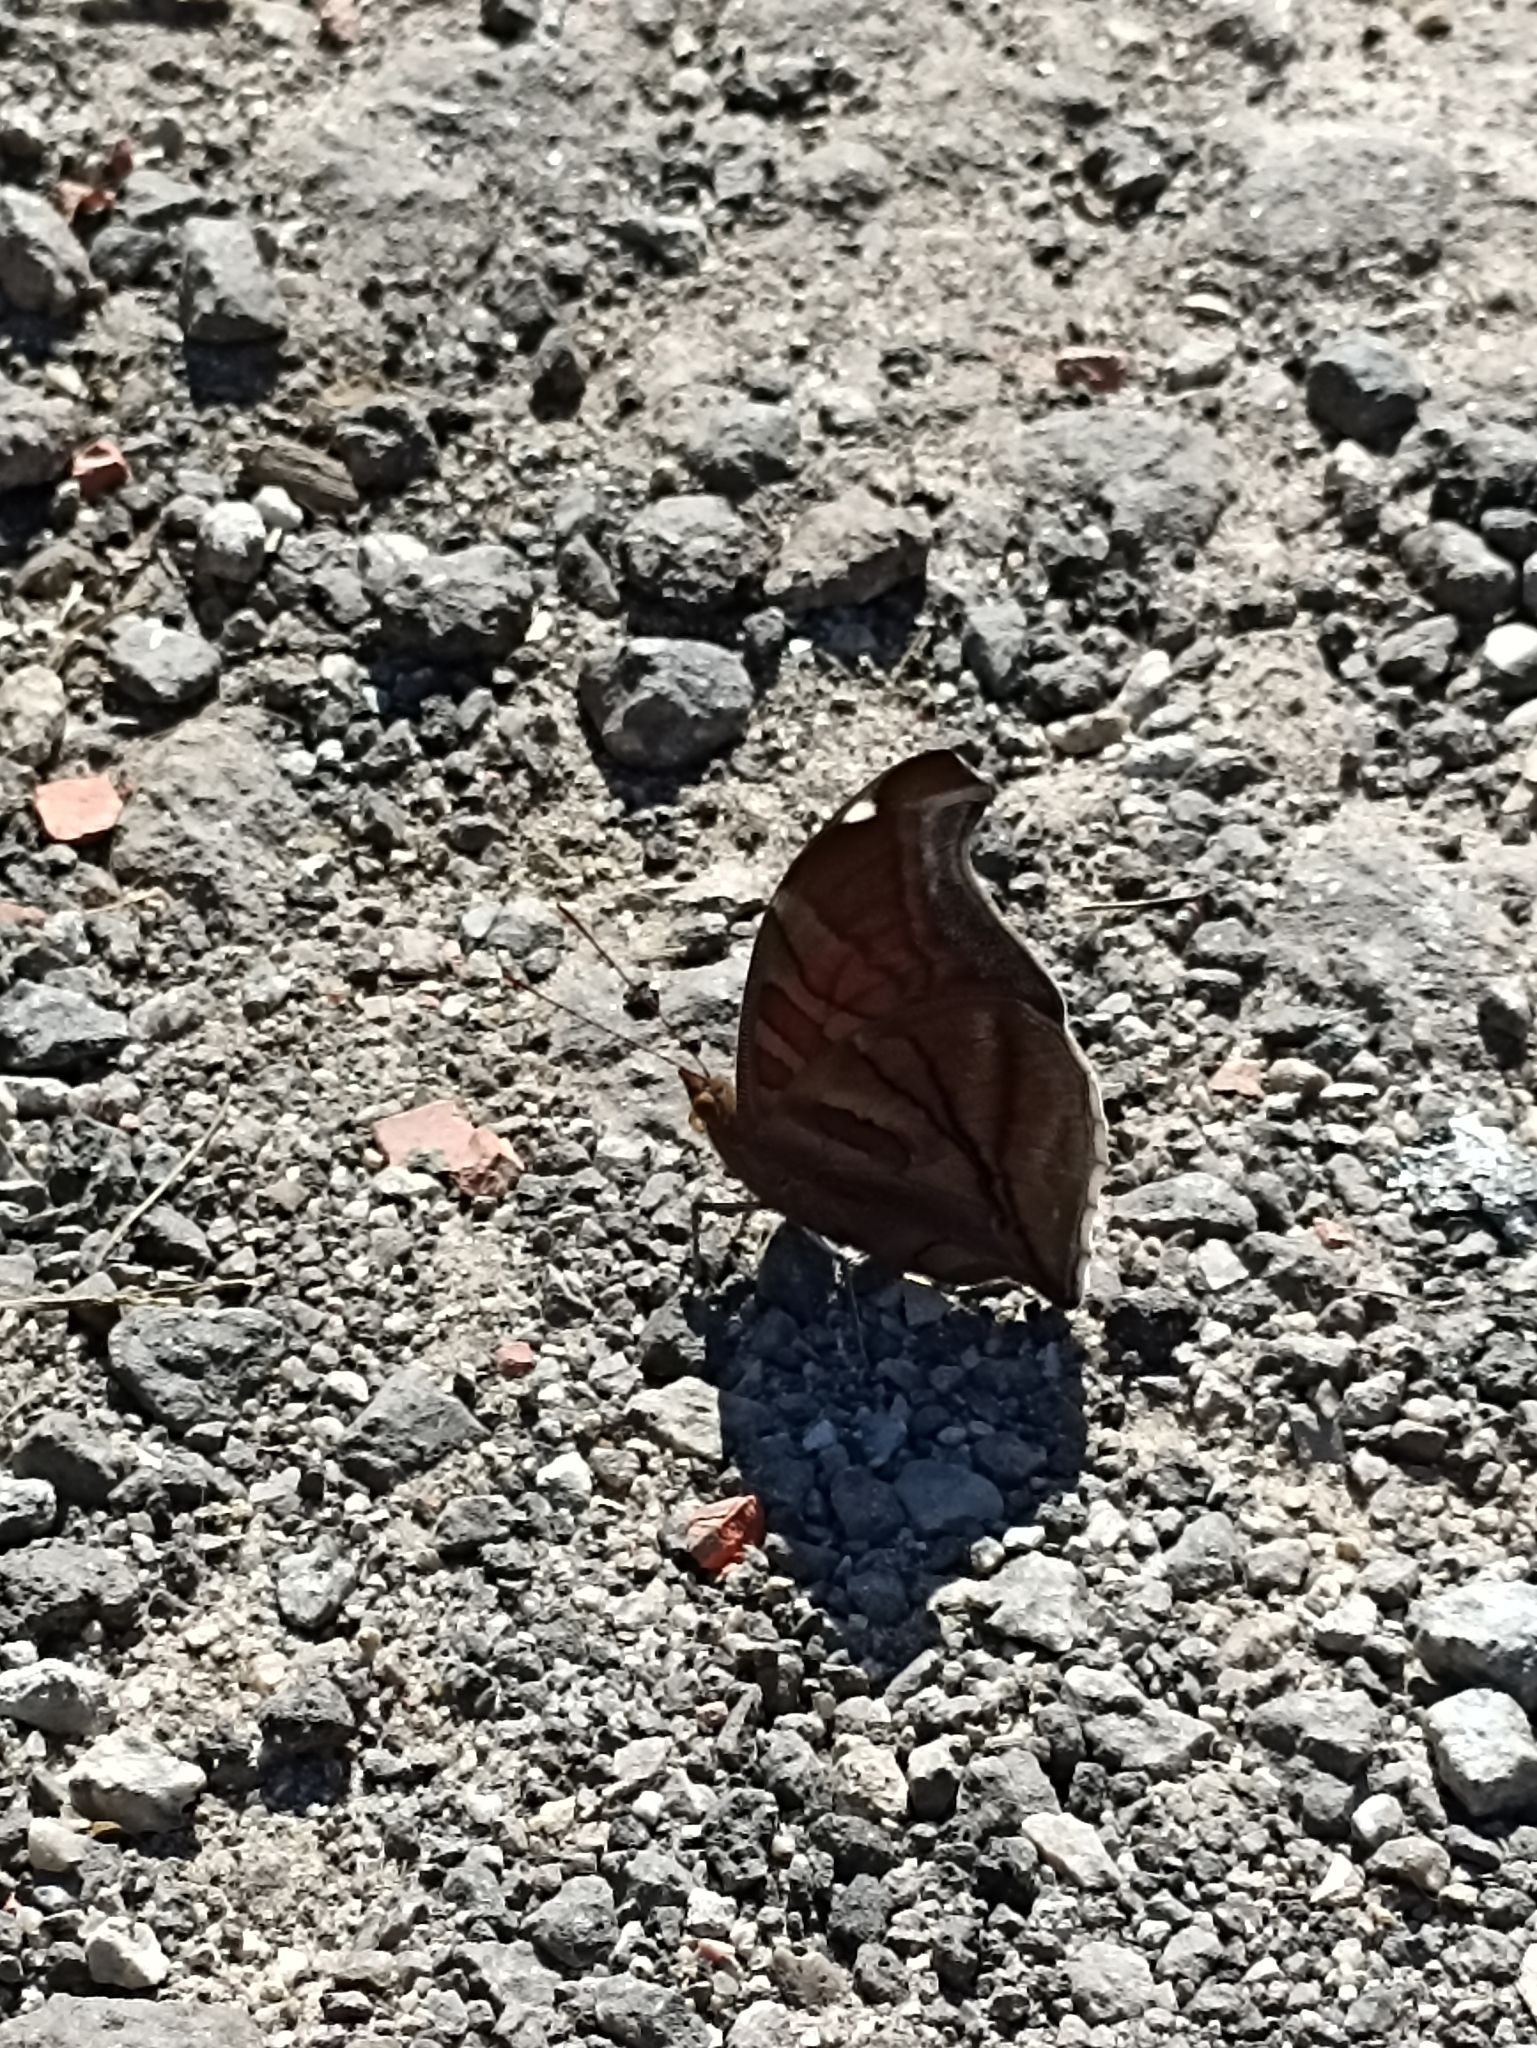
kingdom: Animalia
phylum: Arthropoda
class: Insecta
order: Lepidoptera
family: Nymphalidae
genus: Historis
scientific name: Historis odius
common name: Orion cecropian
